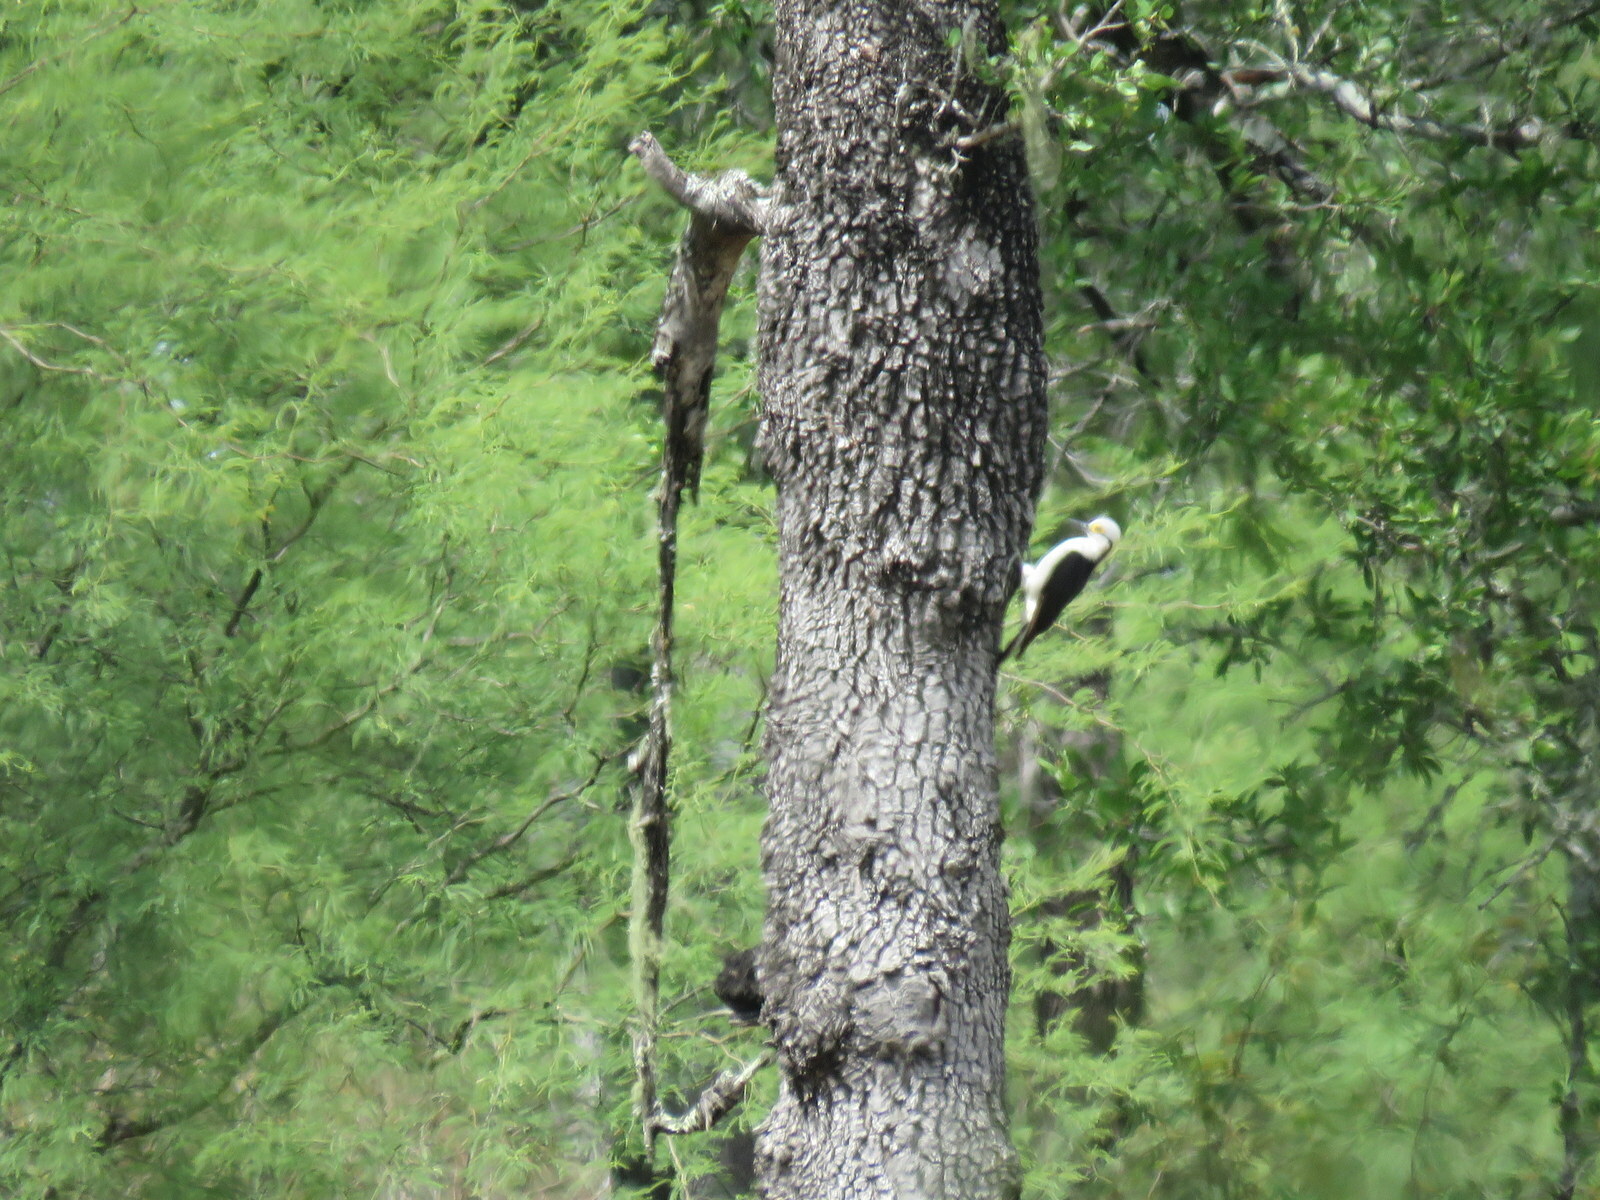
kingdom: Animalia
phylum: Chordata
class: Aves
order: Piciformes
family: Picidae
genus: Melanerpes
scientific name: Melanerpes candidus
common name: White woodpecker
